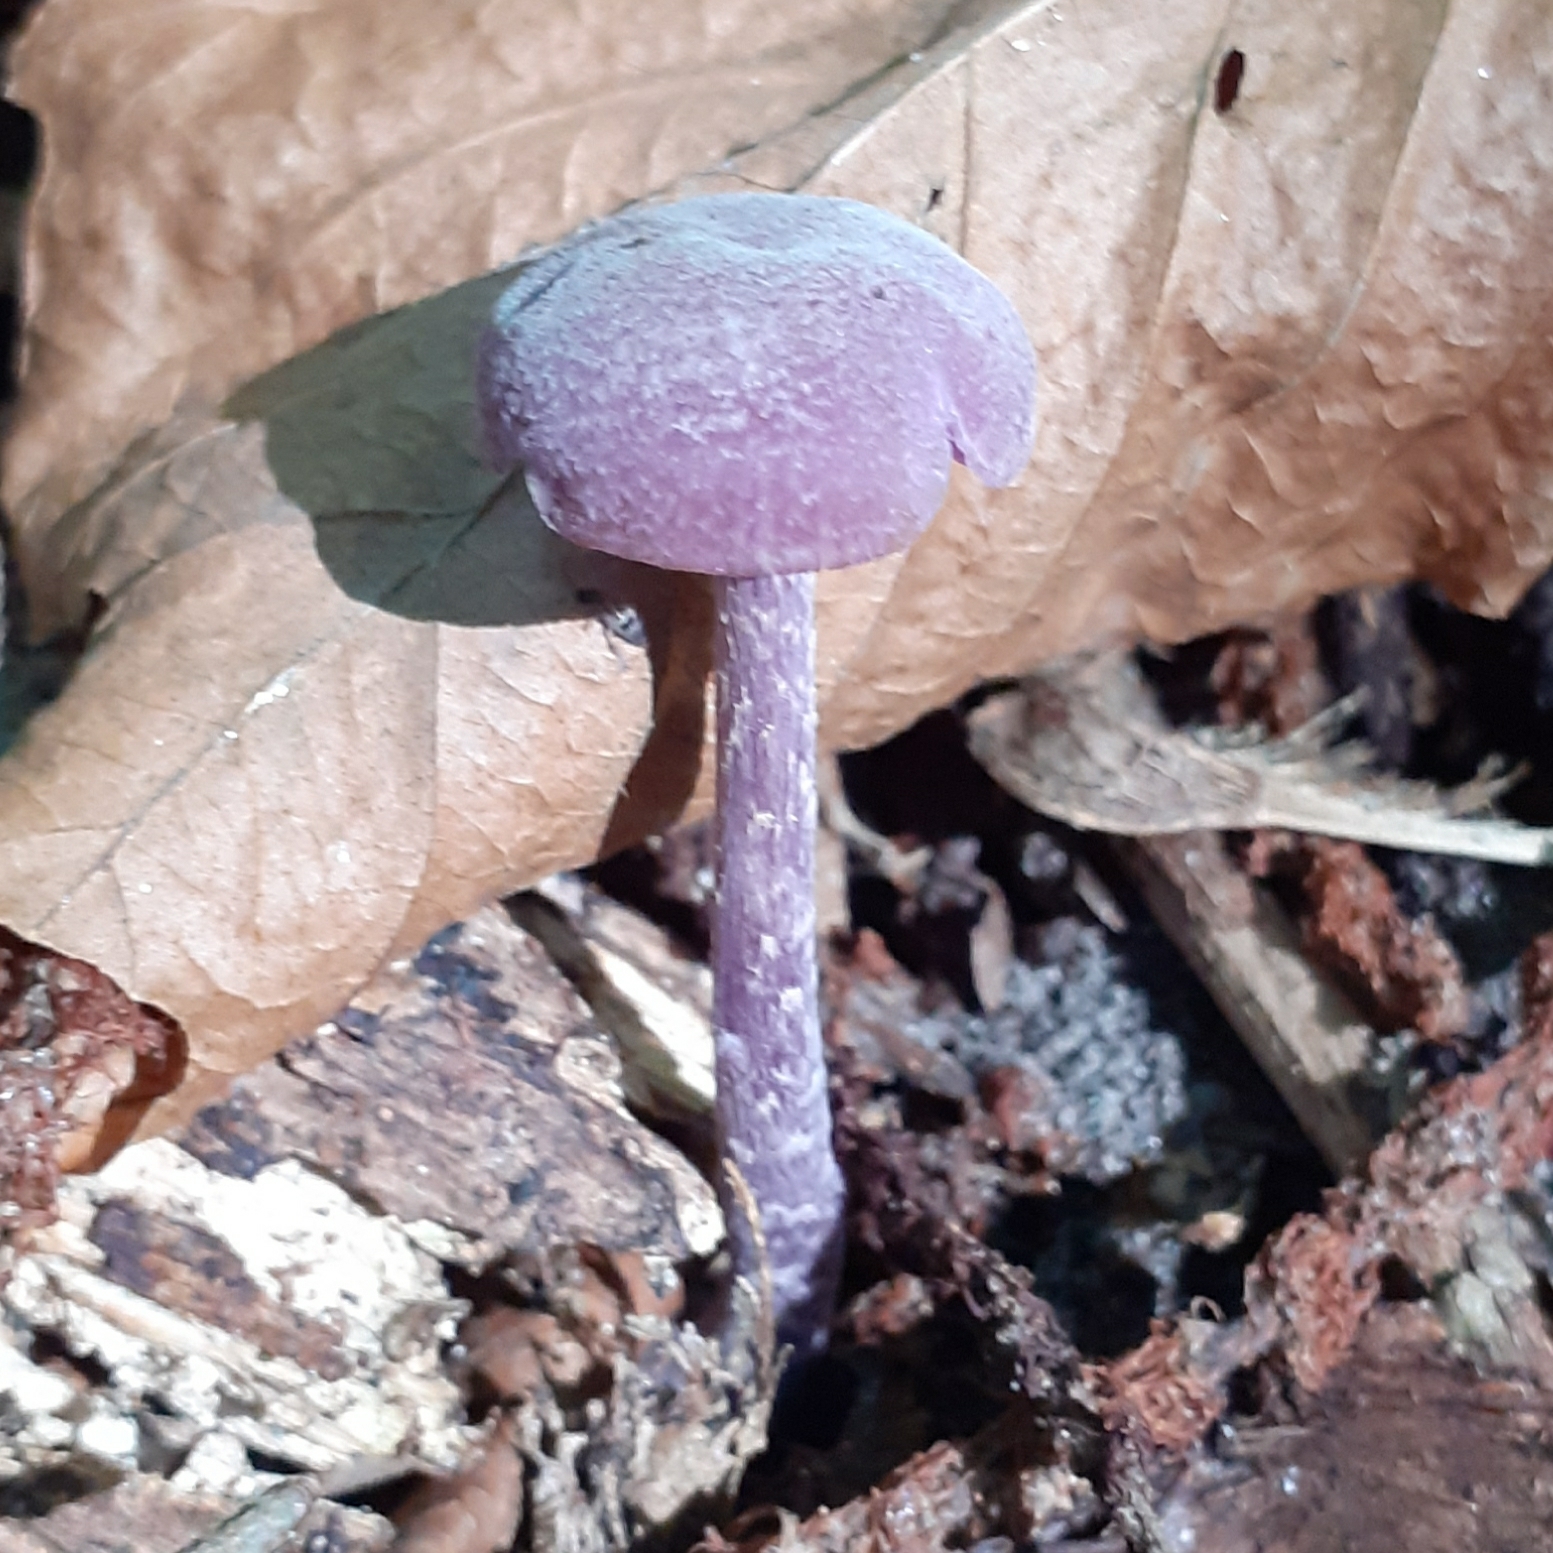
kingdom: Fungi
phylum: Basidiomycota
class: Agaricomycetes
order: Agaricales
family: Hydnangiaceae
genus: Laccaria
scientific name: Laccaria amethystina
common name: Amethyst deceiver
